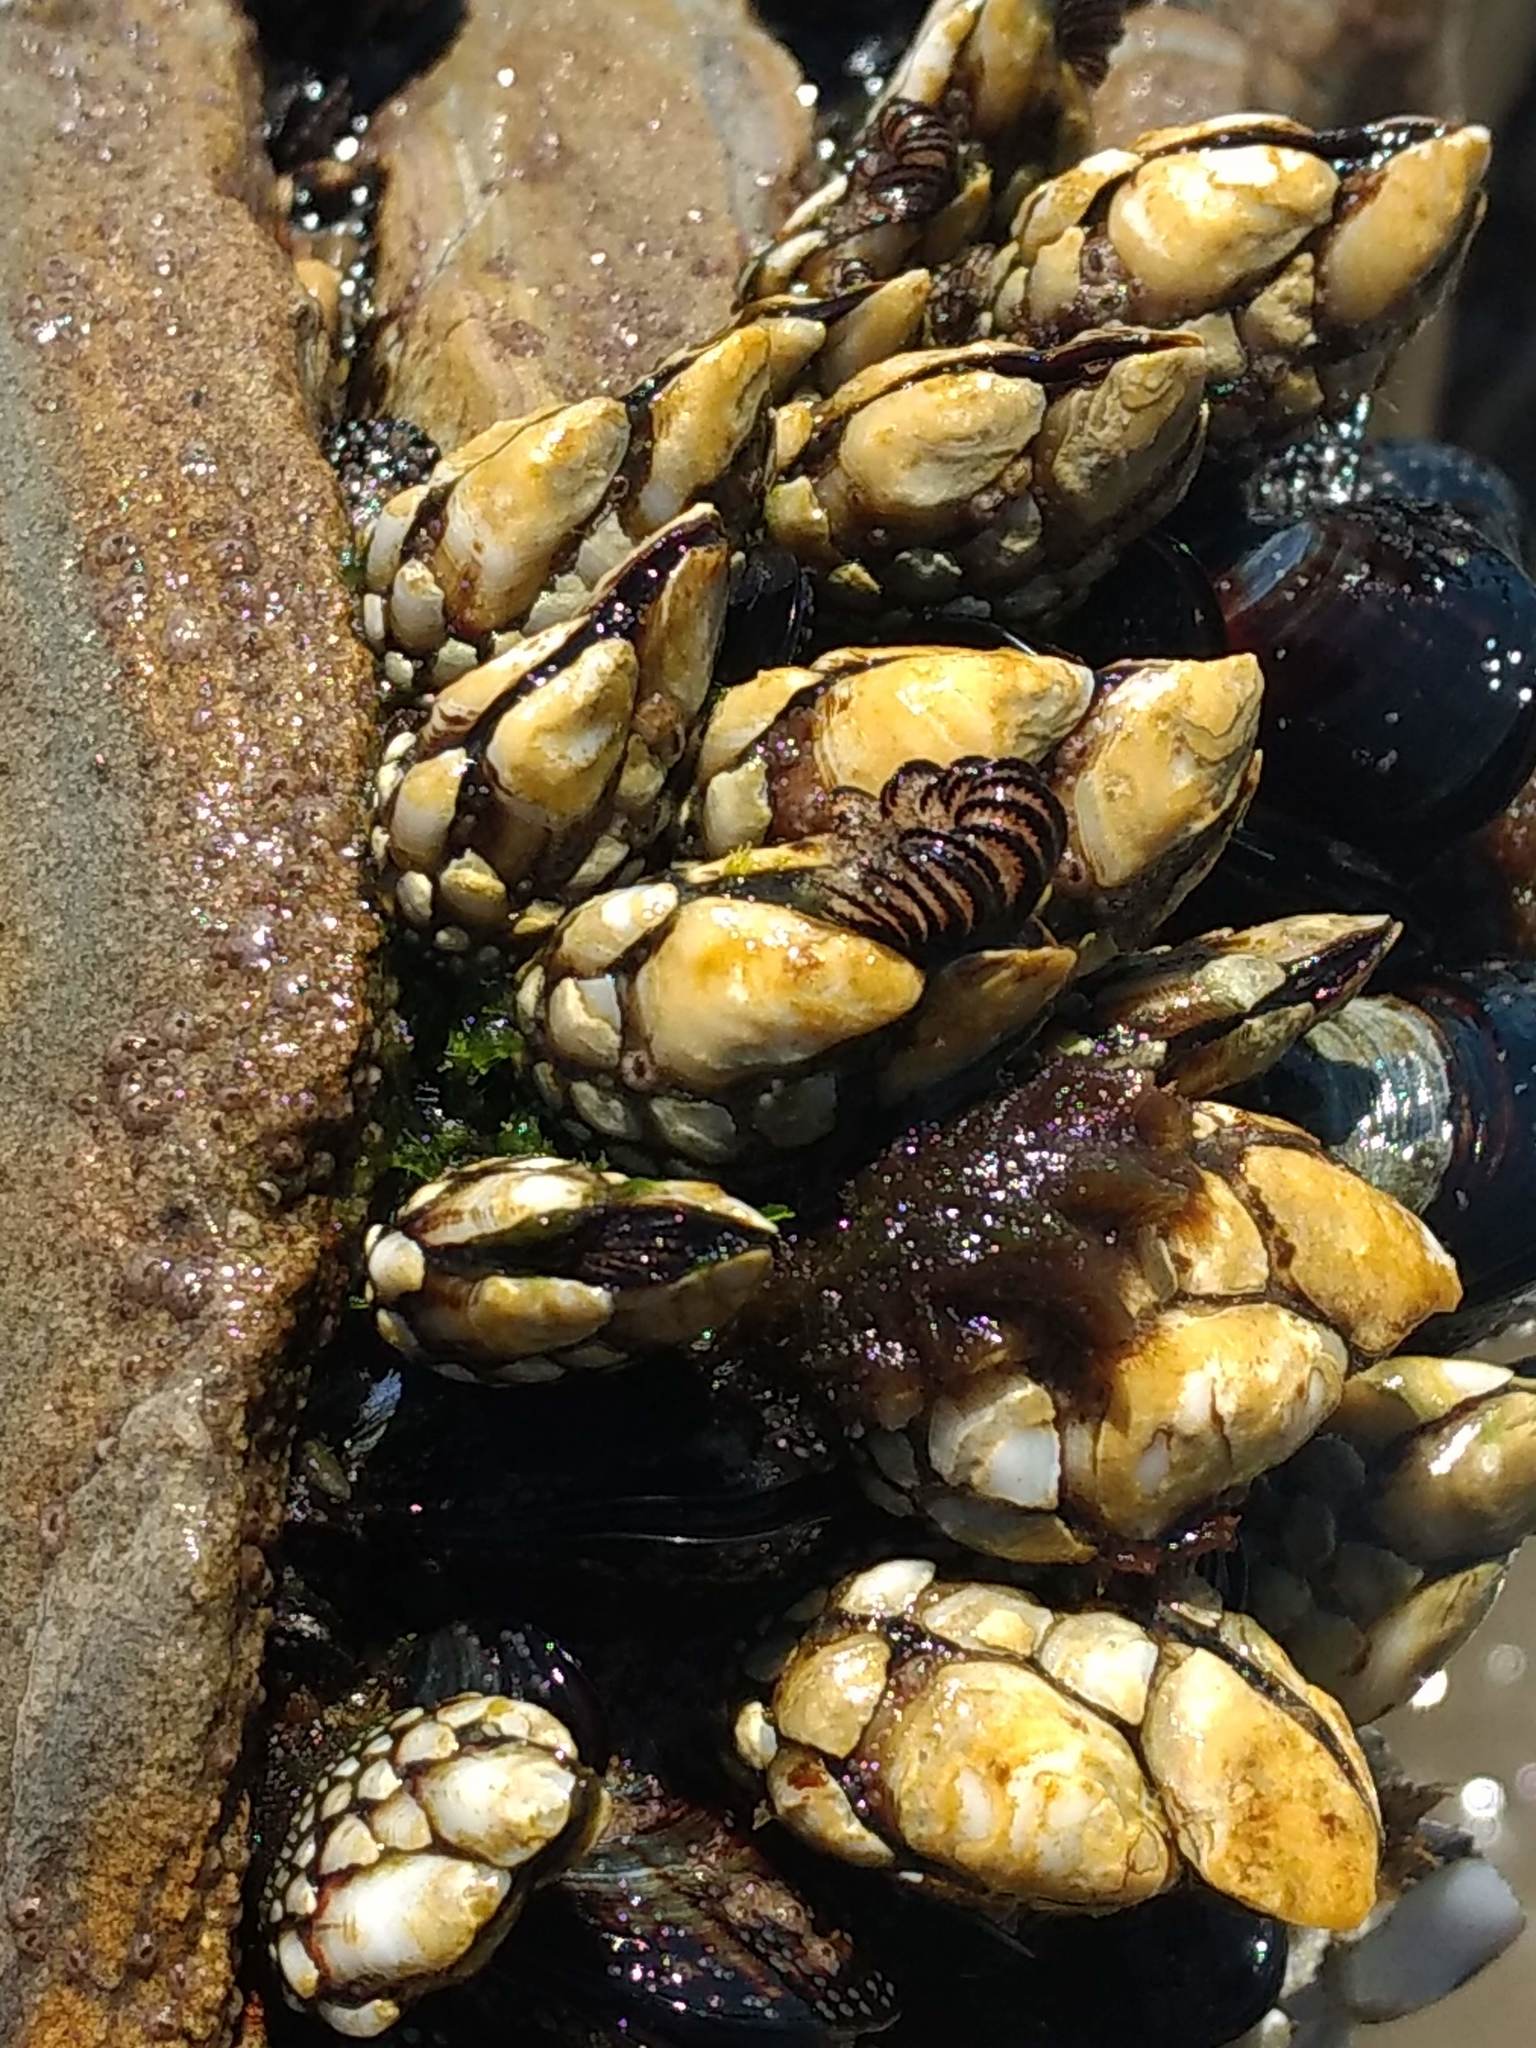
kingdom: Animalia
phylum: Arthropoda
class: Maxillopoda
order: Pedunculata
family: Pollicipedidae
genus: Pollicipes
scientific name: Pollicipes polymerus
